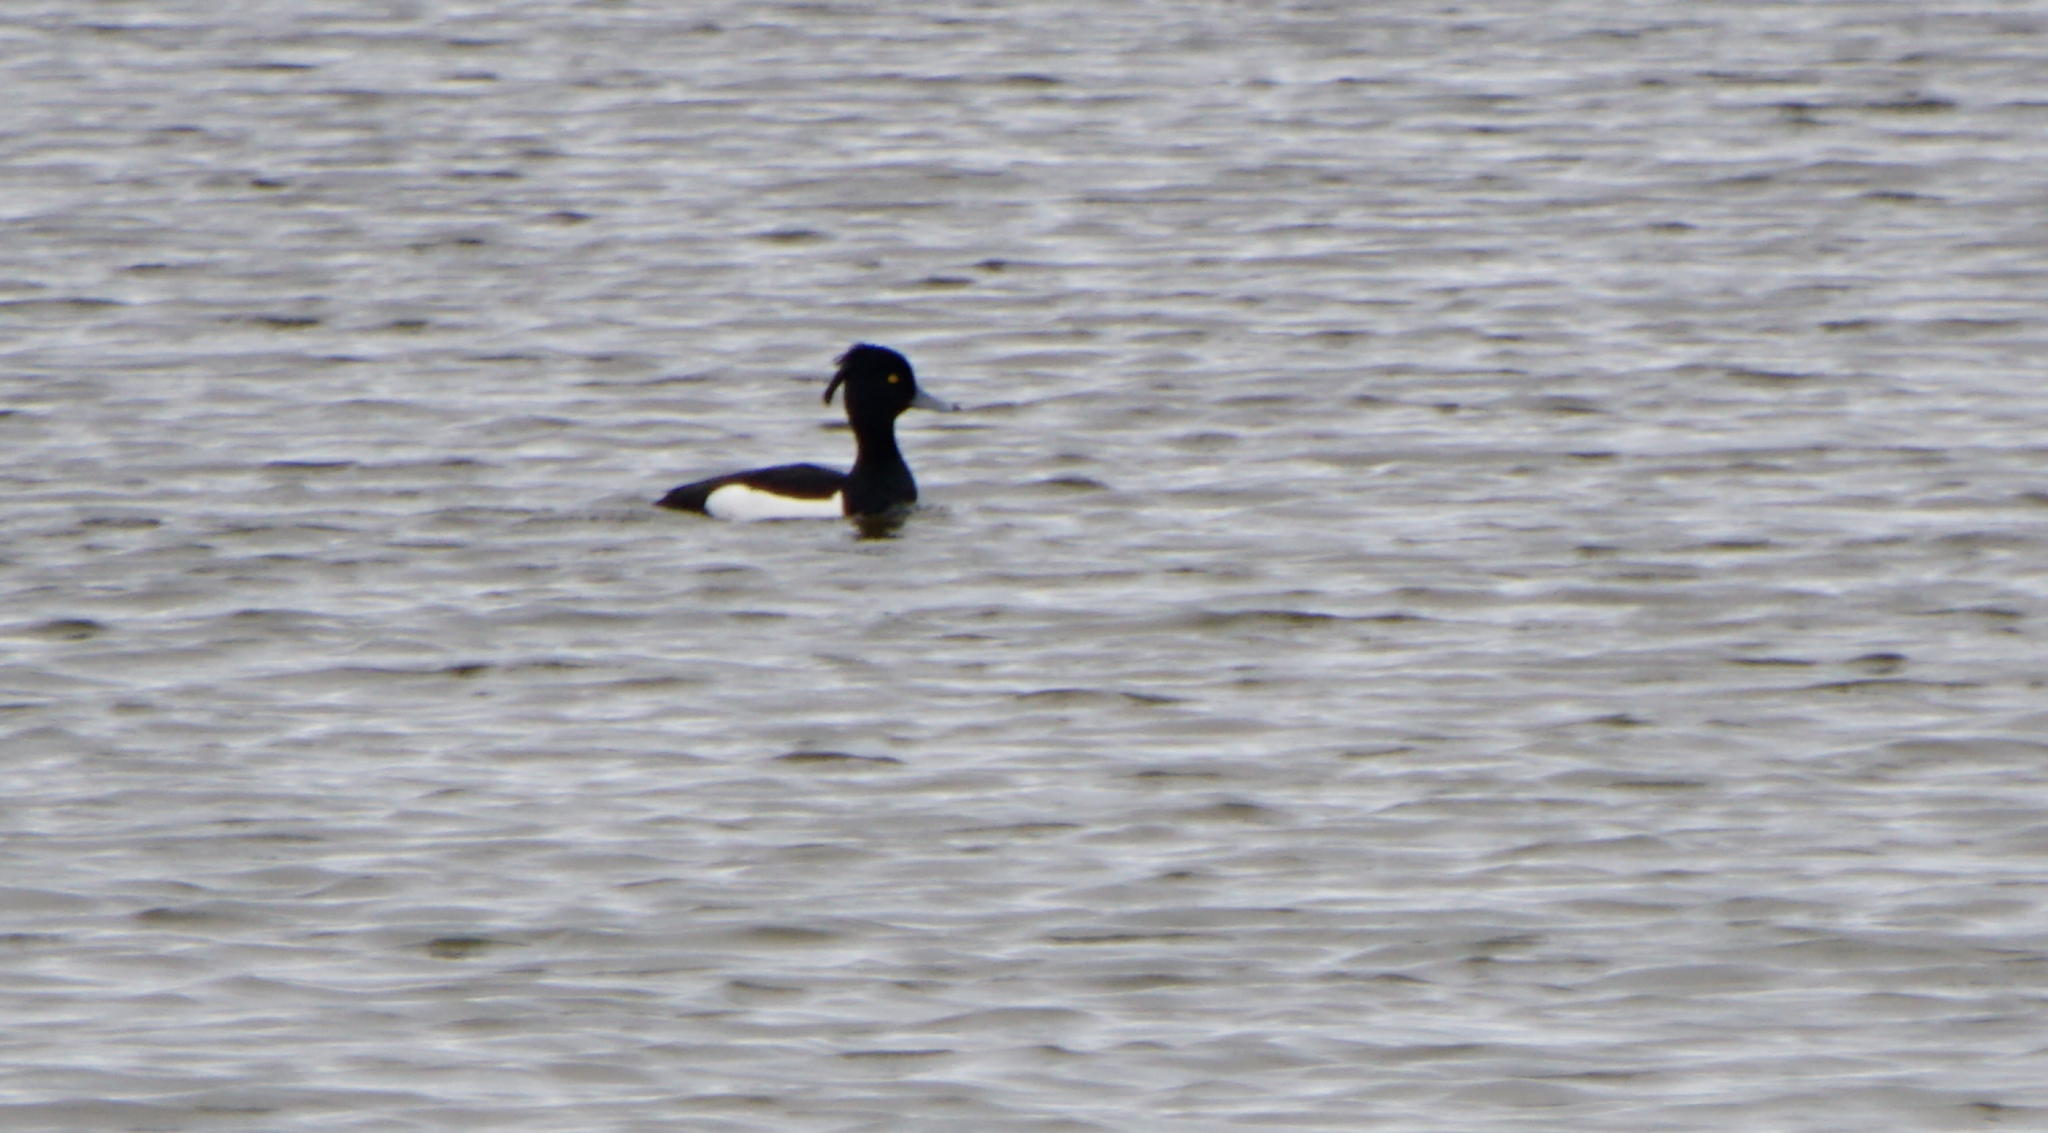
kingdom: Animalia
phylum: Chordata
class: Aves
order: Anseriformes
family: Anatidae
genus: Aythya
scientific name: Aythya fuligula
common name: Tufted duck
